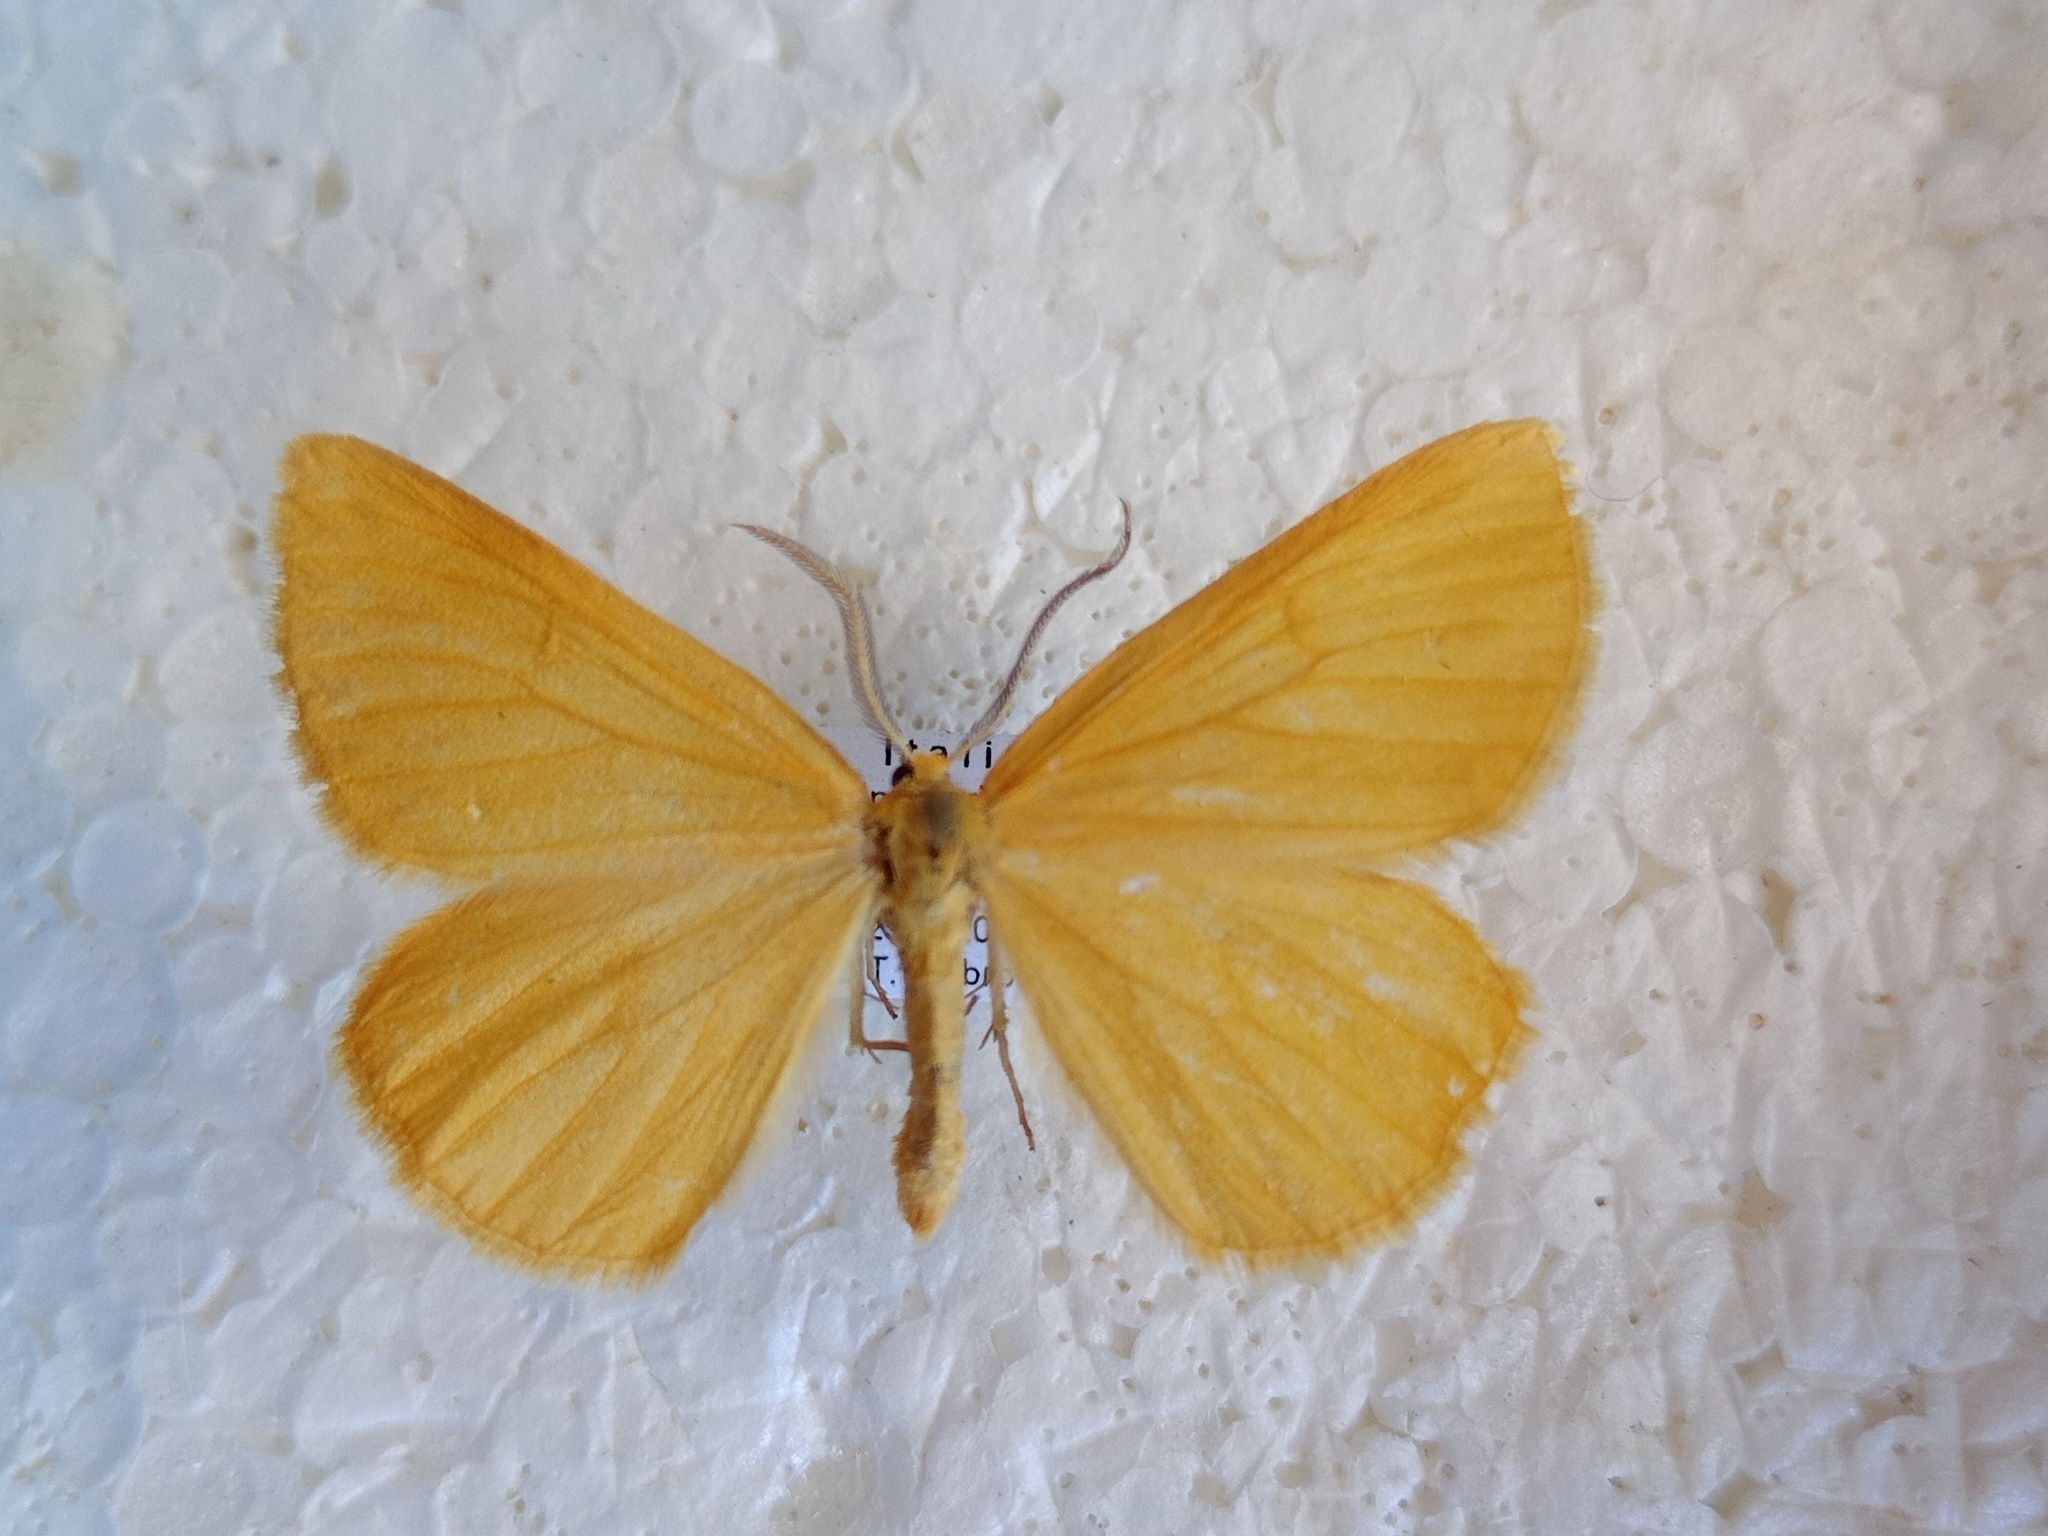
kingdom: Animalia
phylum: Arthropoda
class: Insecta
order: Lepidoptera
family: Geometridae
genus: Crocota
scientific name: Crocota tinctaria
